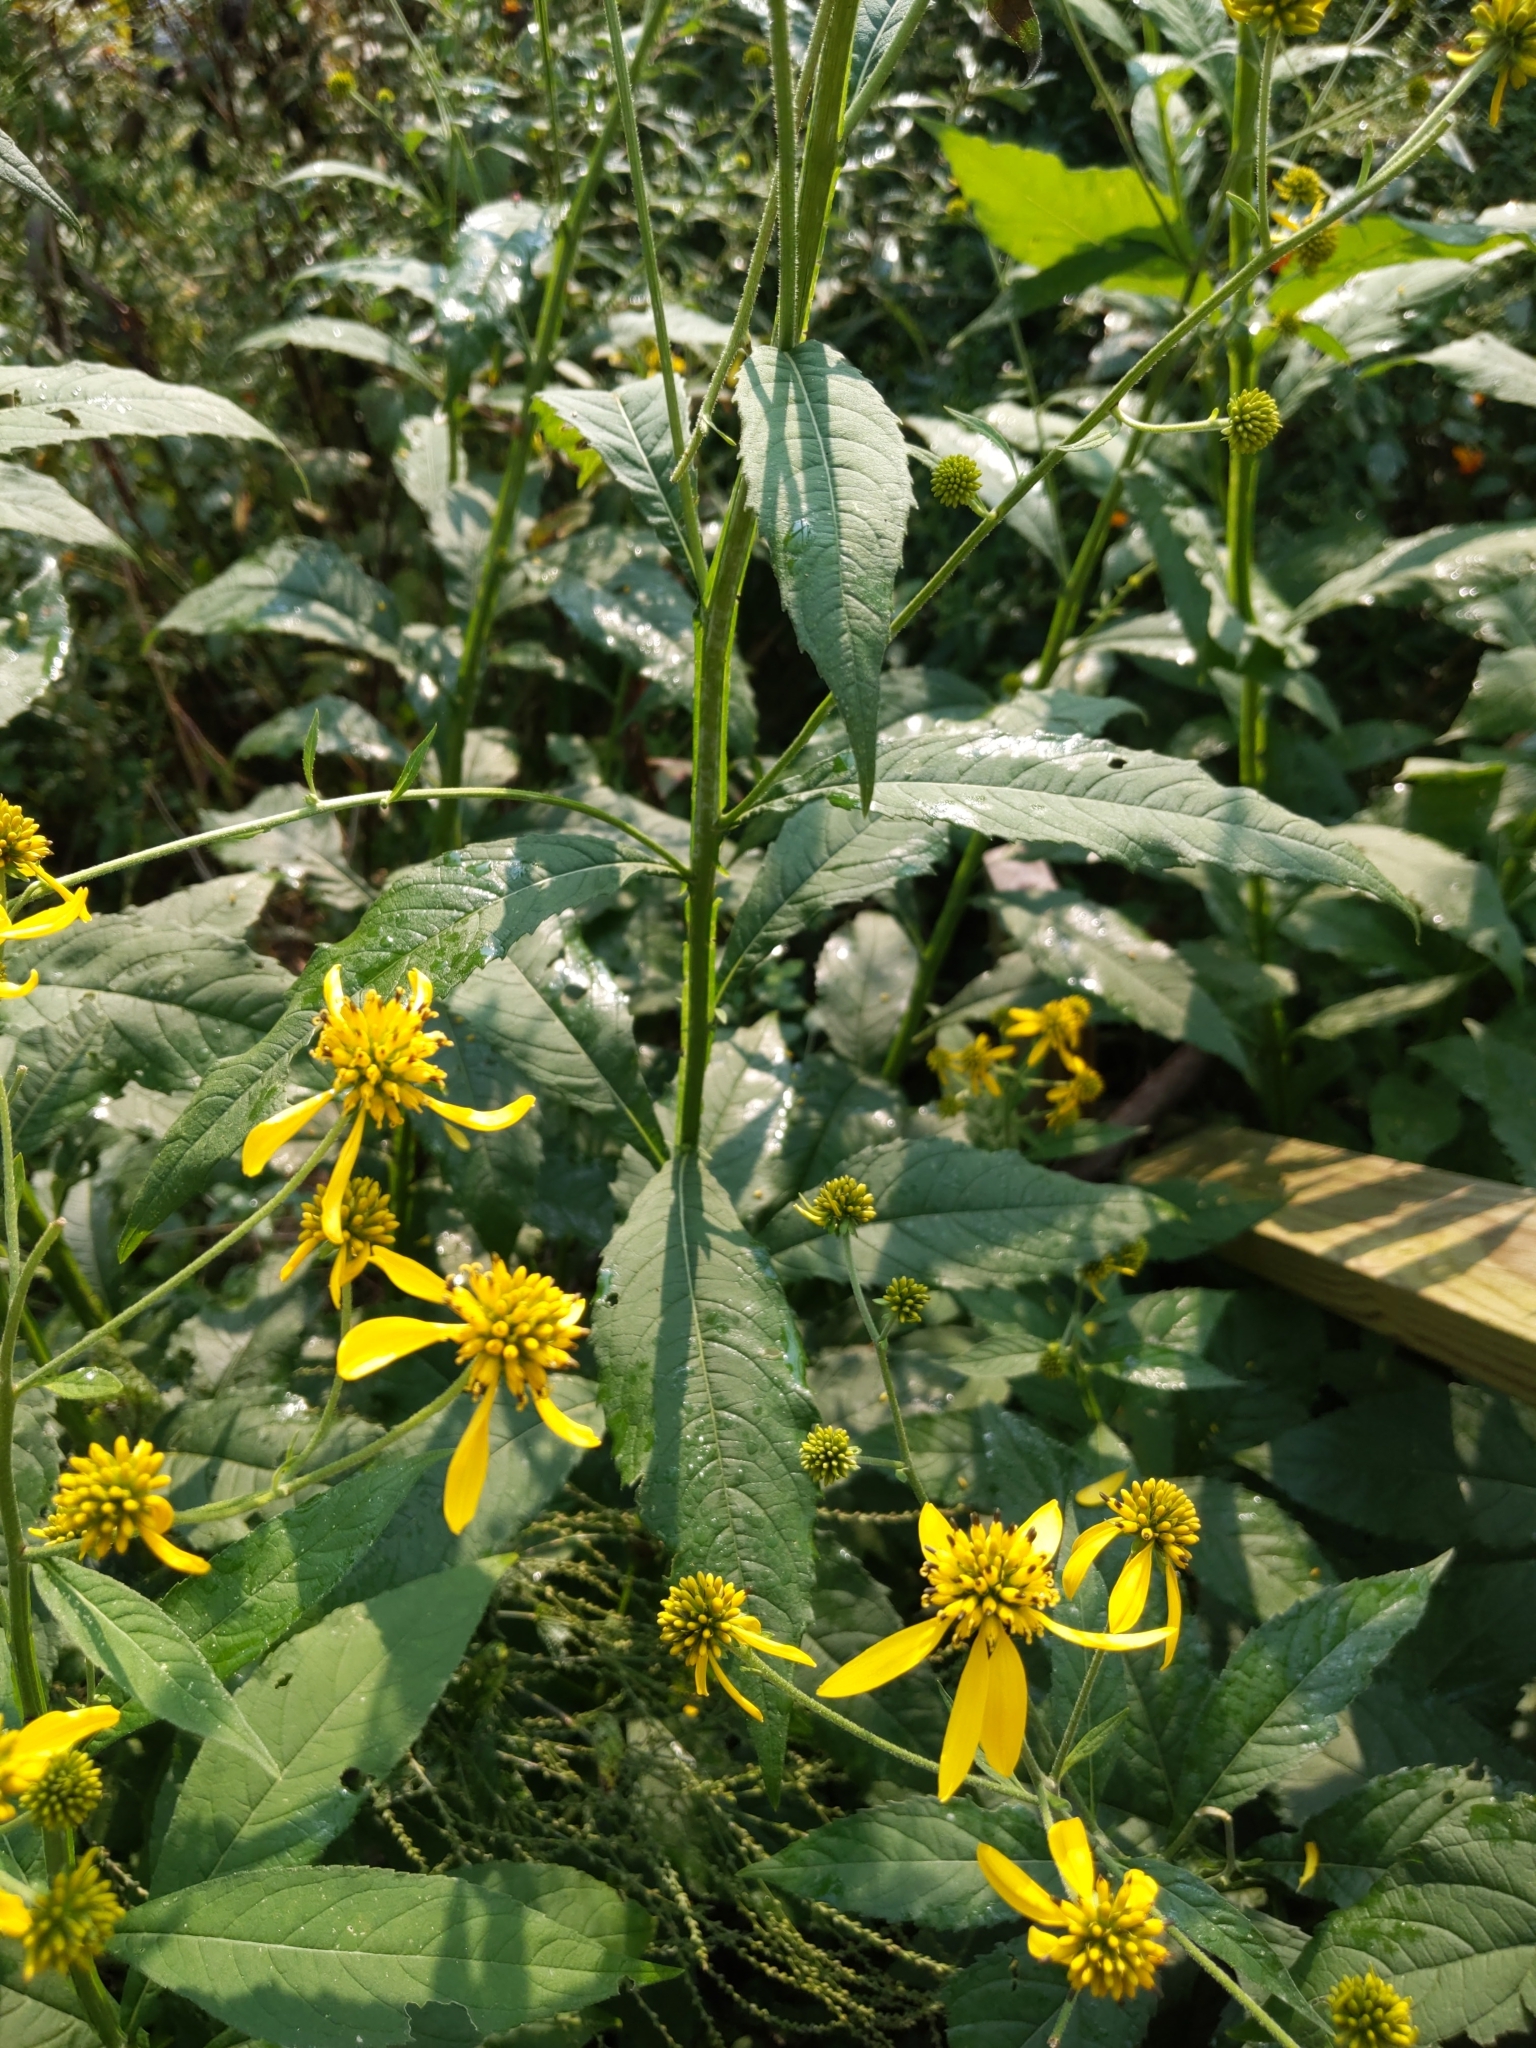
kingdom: Plantae
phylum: Tracheophyta
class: Magnoliopsida
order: Asterales
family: Asteraceae
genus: Verbesina
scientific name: Verbesina alternifolia
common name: Wingstem
